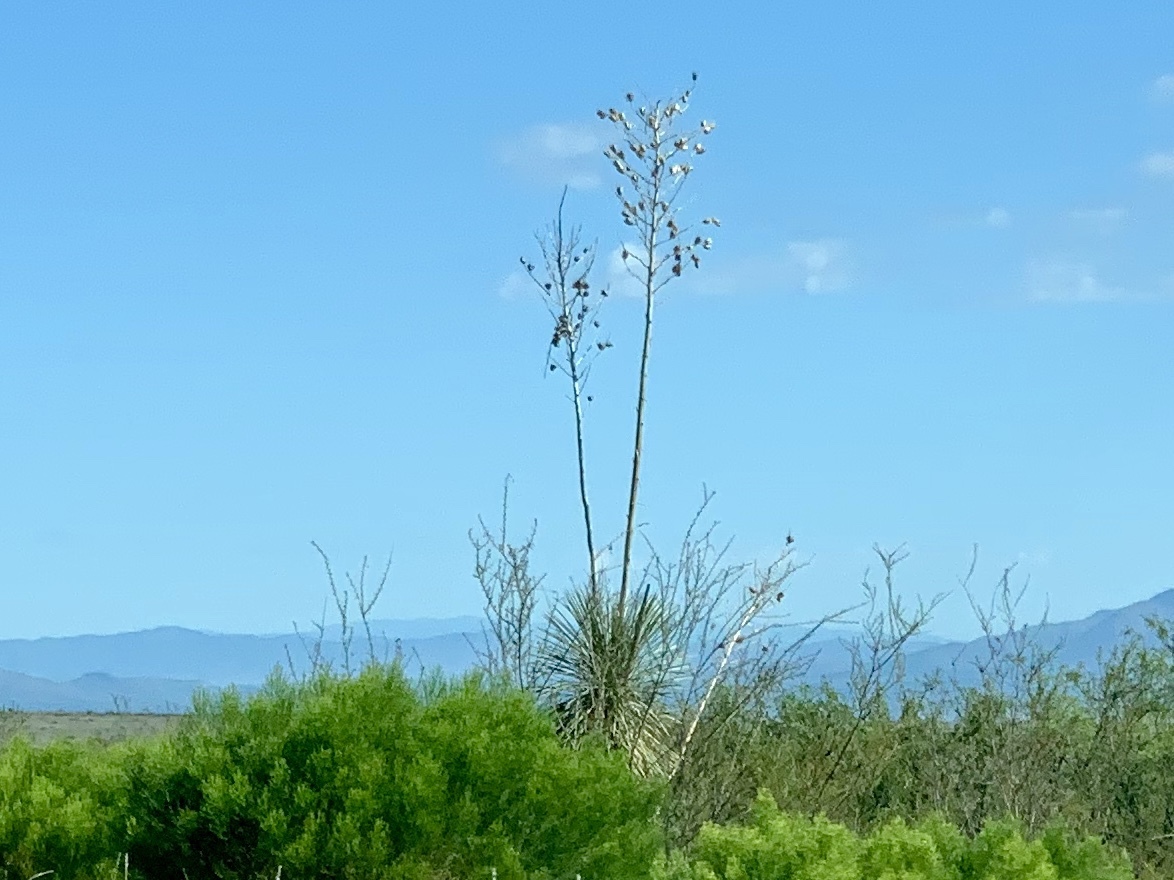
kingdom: Plantae
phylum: Tracheophyta
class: Liliopsida
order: Asparagales
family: Asparagaceae
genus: Yucca
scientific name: Yucca elata
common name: Palmella
